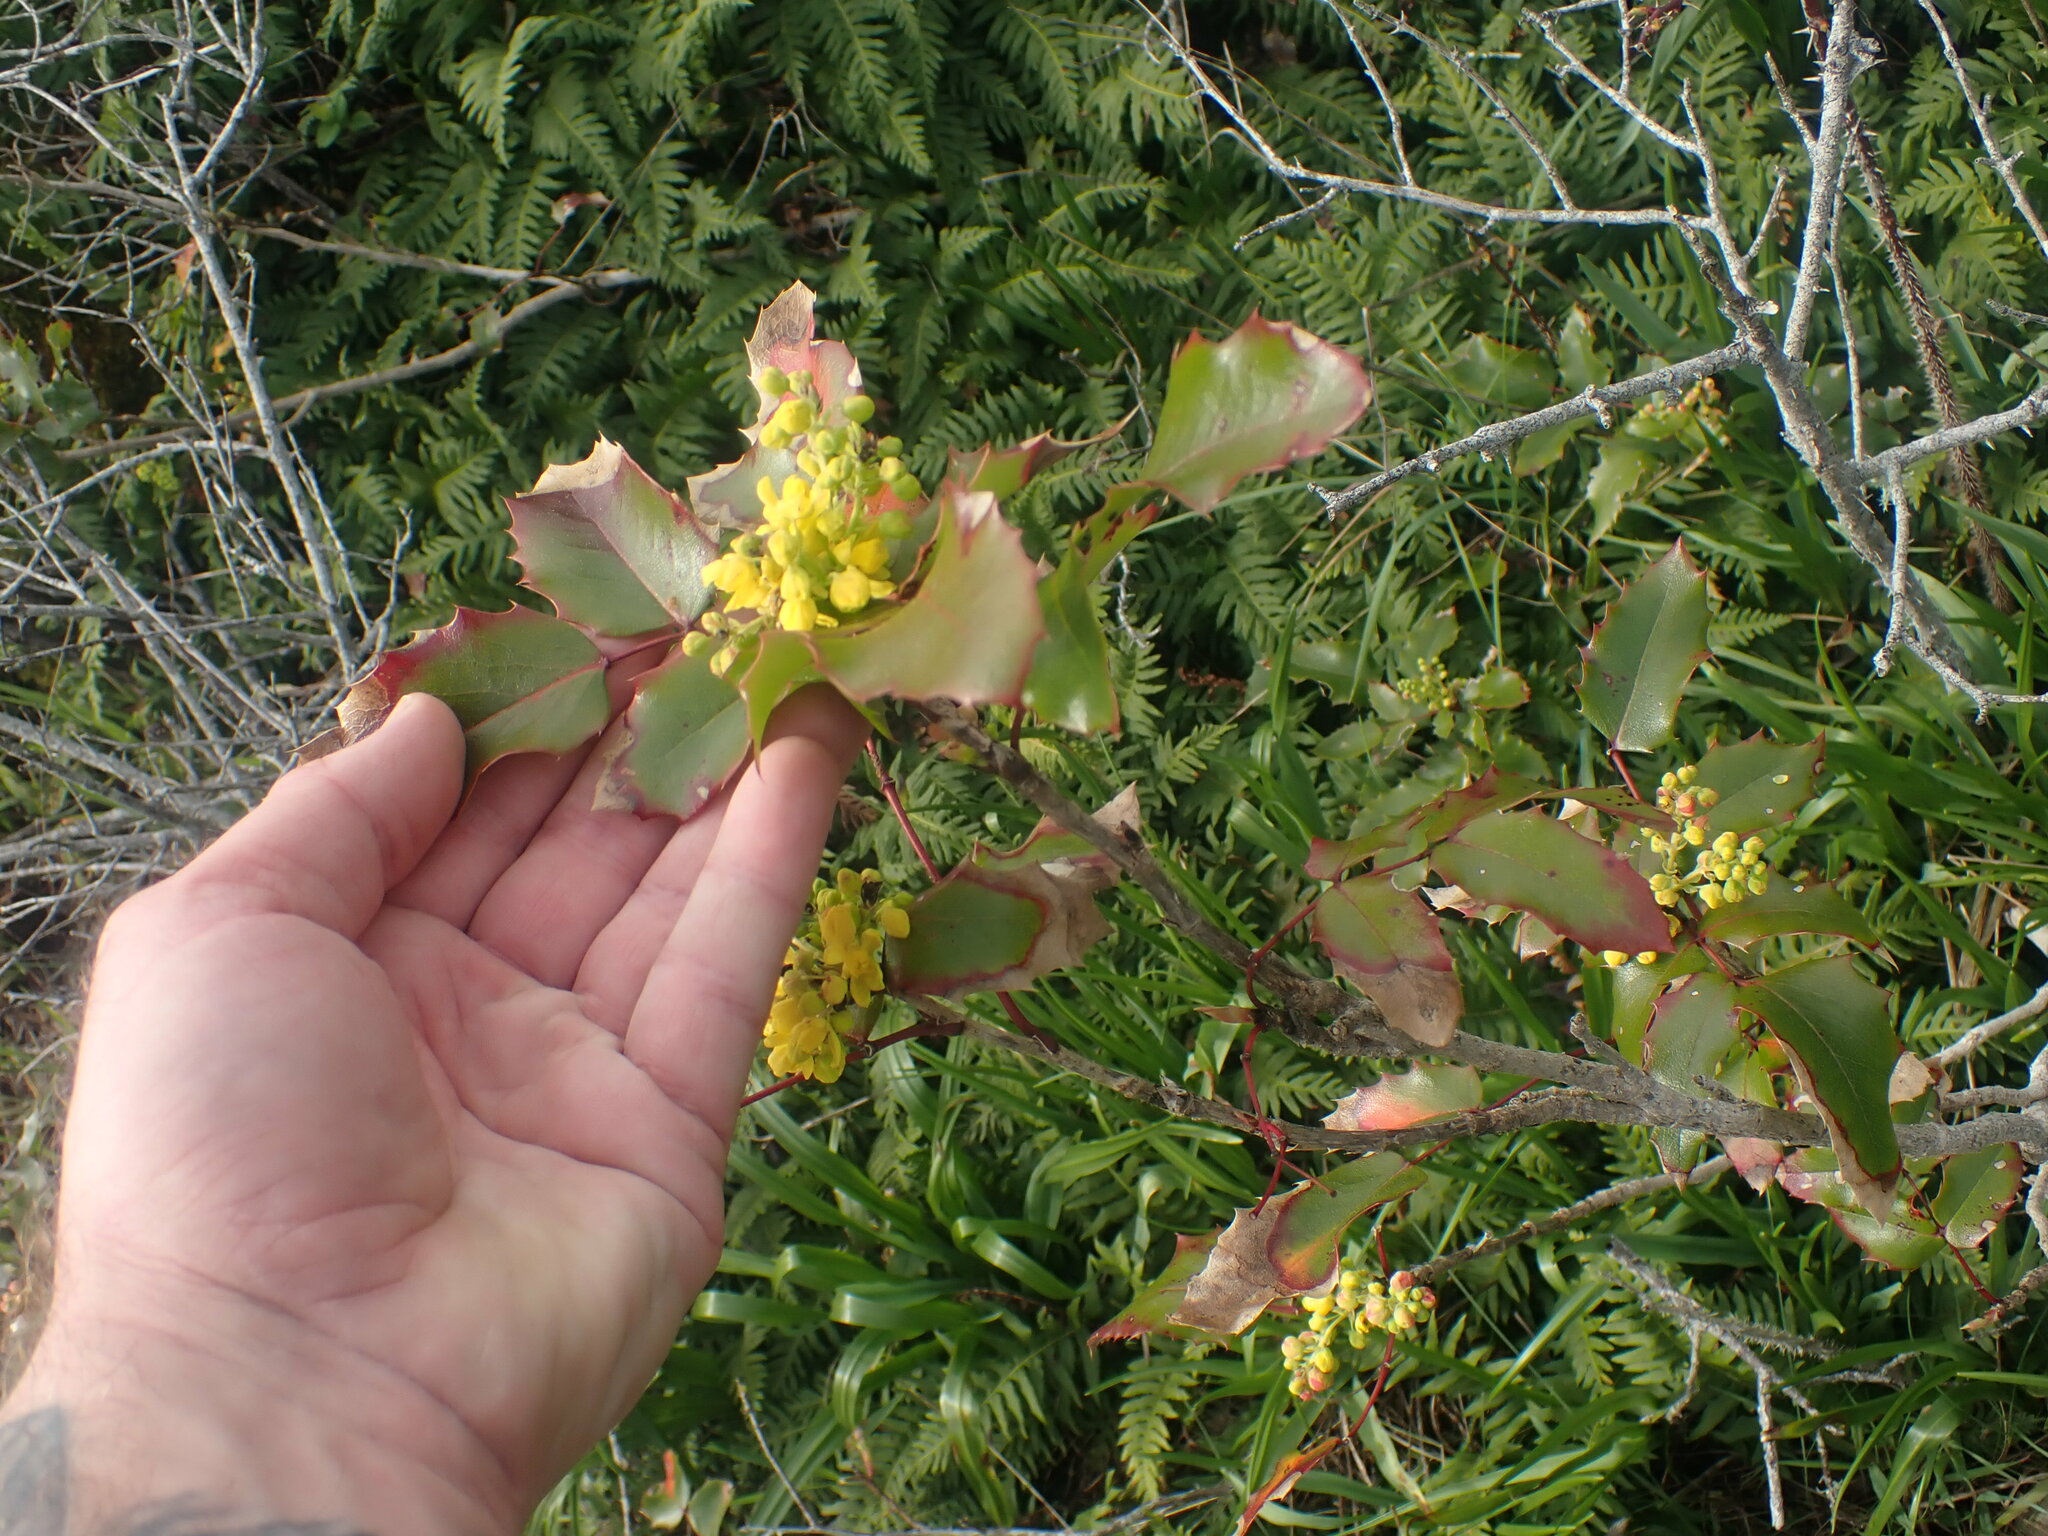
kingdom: Plantae
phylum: Tracheophyta
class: Magnoliopsida
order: Ranunculales
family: Berberidaceae
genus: Mahonia
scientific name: Mahonia aquifolium
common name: Oregon-grape
